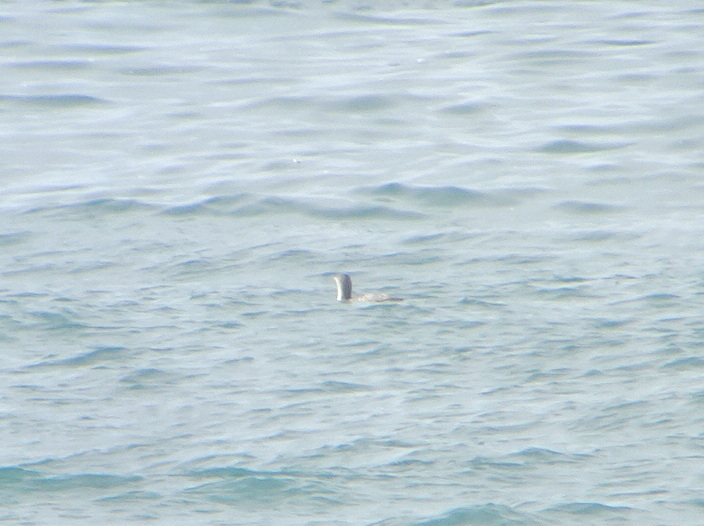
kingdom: Animalia
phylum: Chordata
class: Aves
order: Gaviiformes
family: Gaviidae
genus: Gavia
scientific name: Gavia stellata
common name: Red-throated loon
